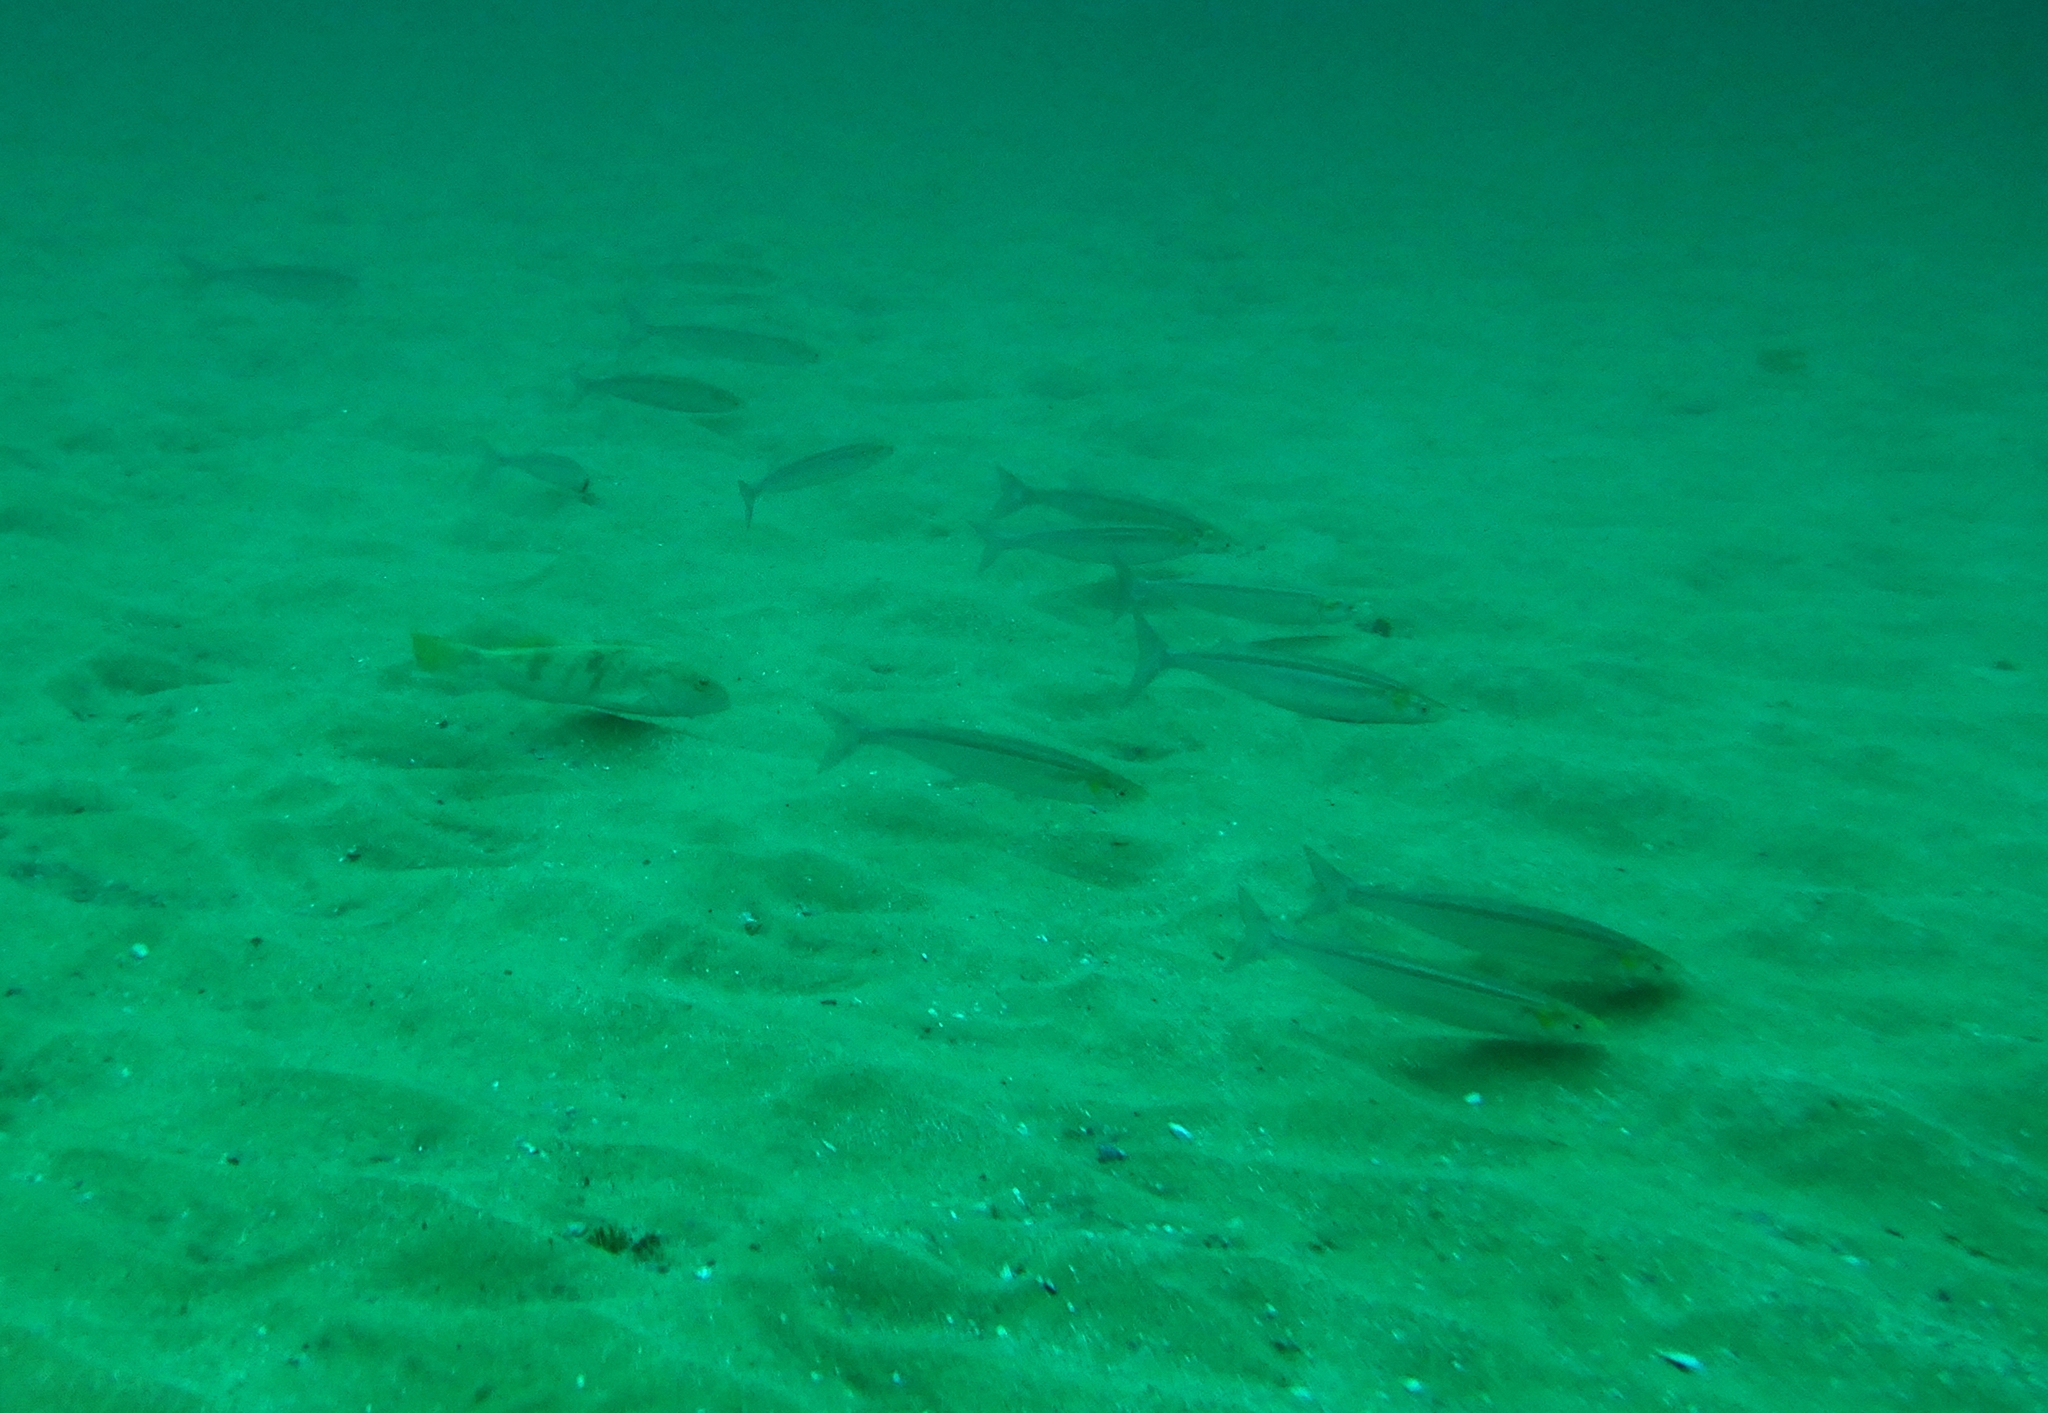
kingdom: Animalia
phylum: Chordata
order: Atheriniformes
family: Atherinopsidae
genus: Atherinops
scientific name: Atherinops affinis
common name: Topsmelt
